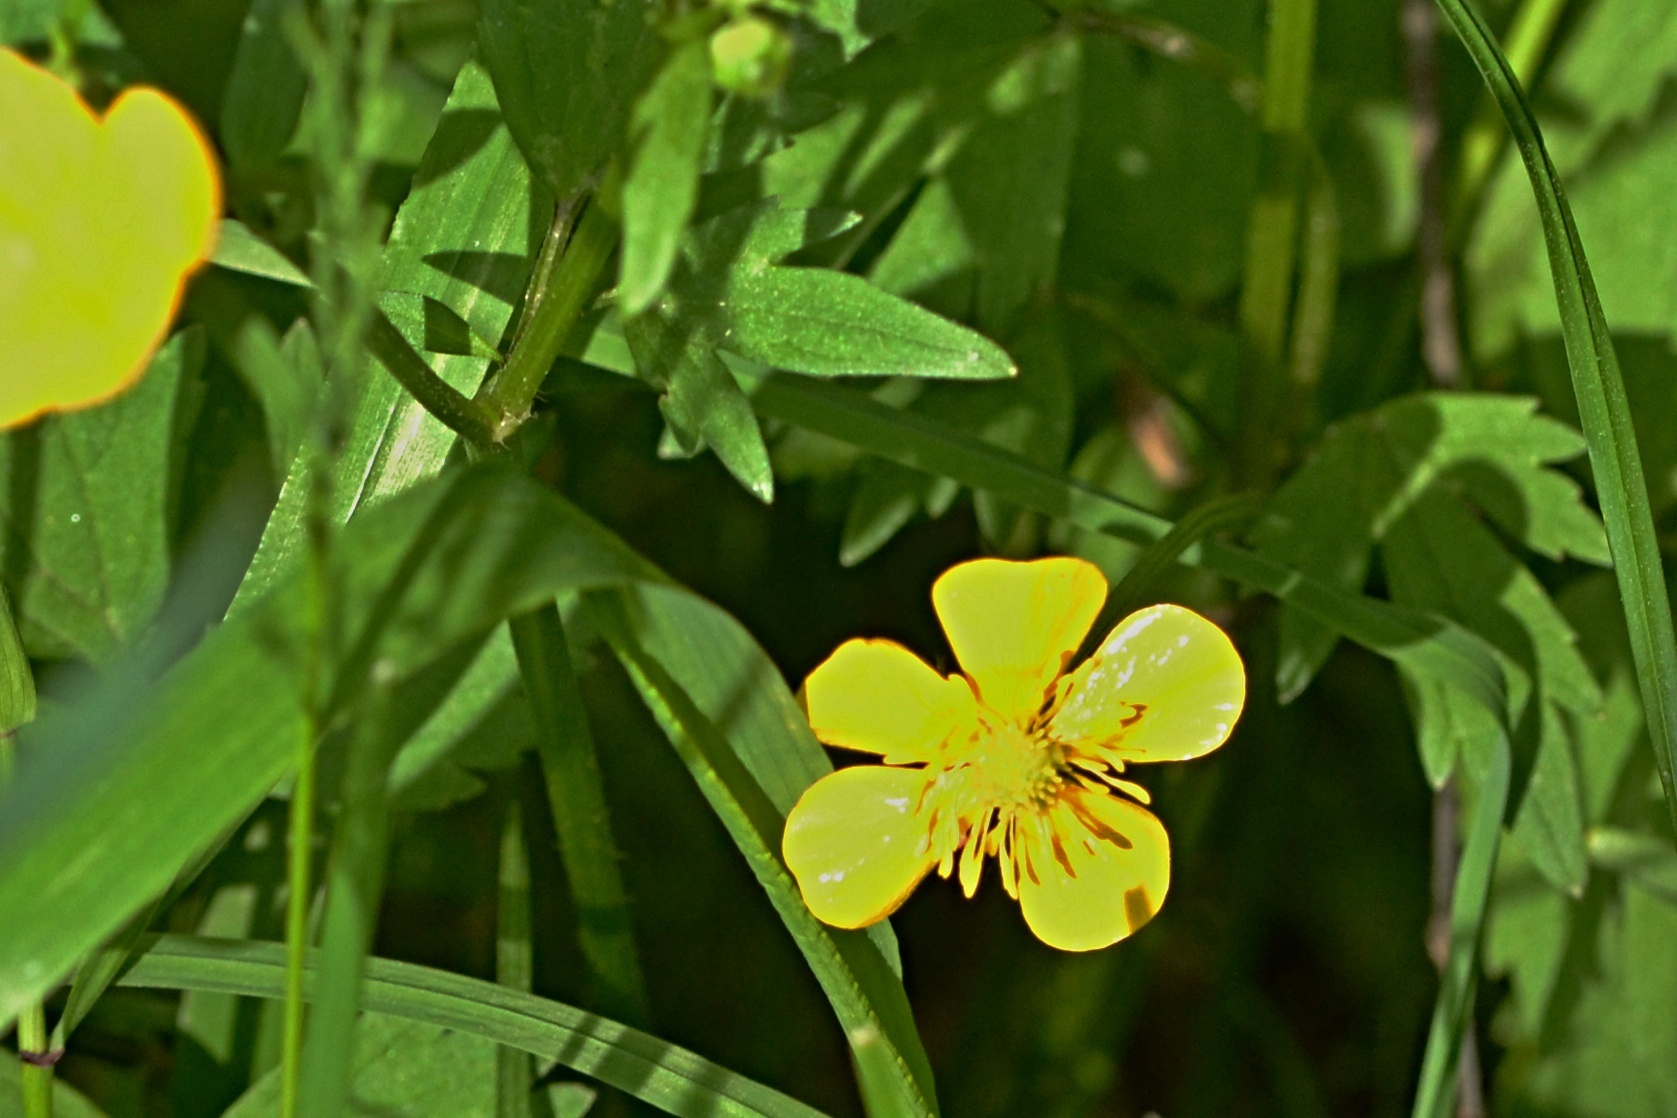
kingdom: Plantae
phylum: Tracheophyta
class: Magnoliopsida
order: Ranunculales
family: Ranunculaceae
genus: Ranunculus
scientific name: Ranunculus repens
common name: Creeping buttercup
